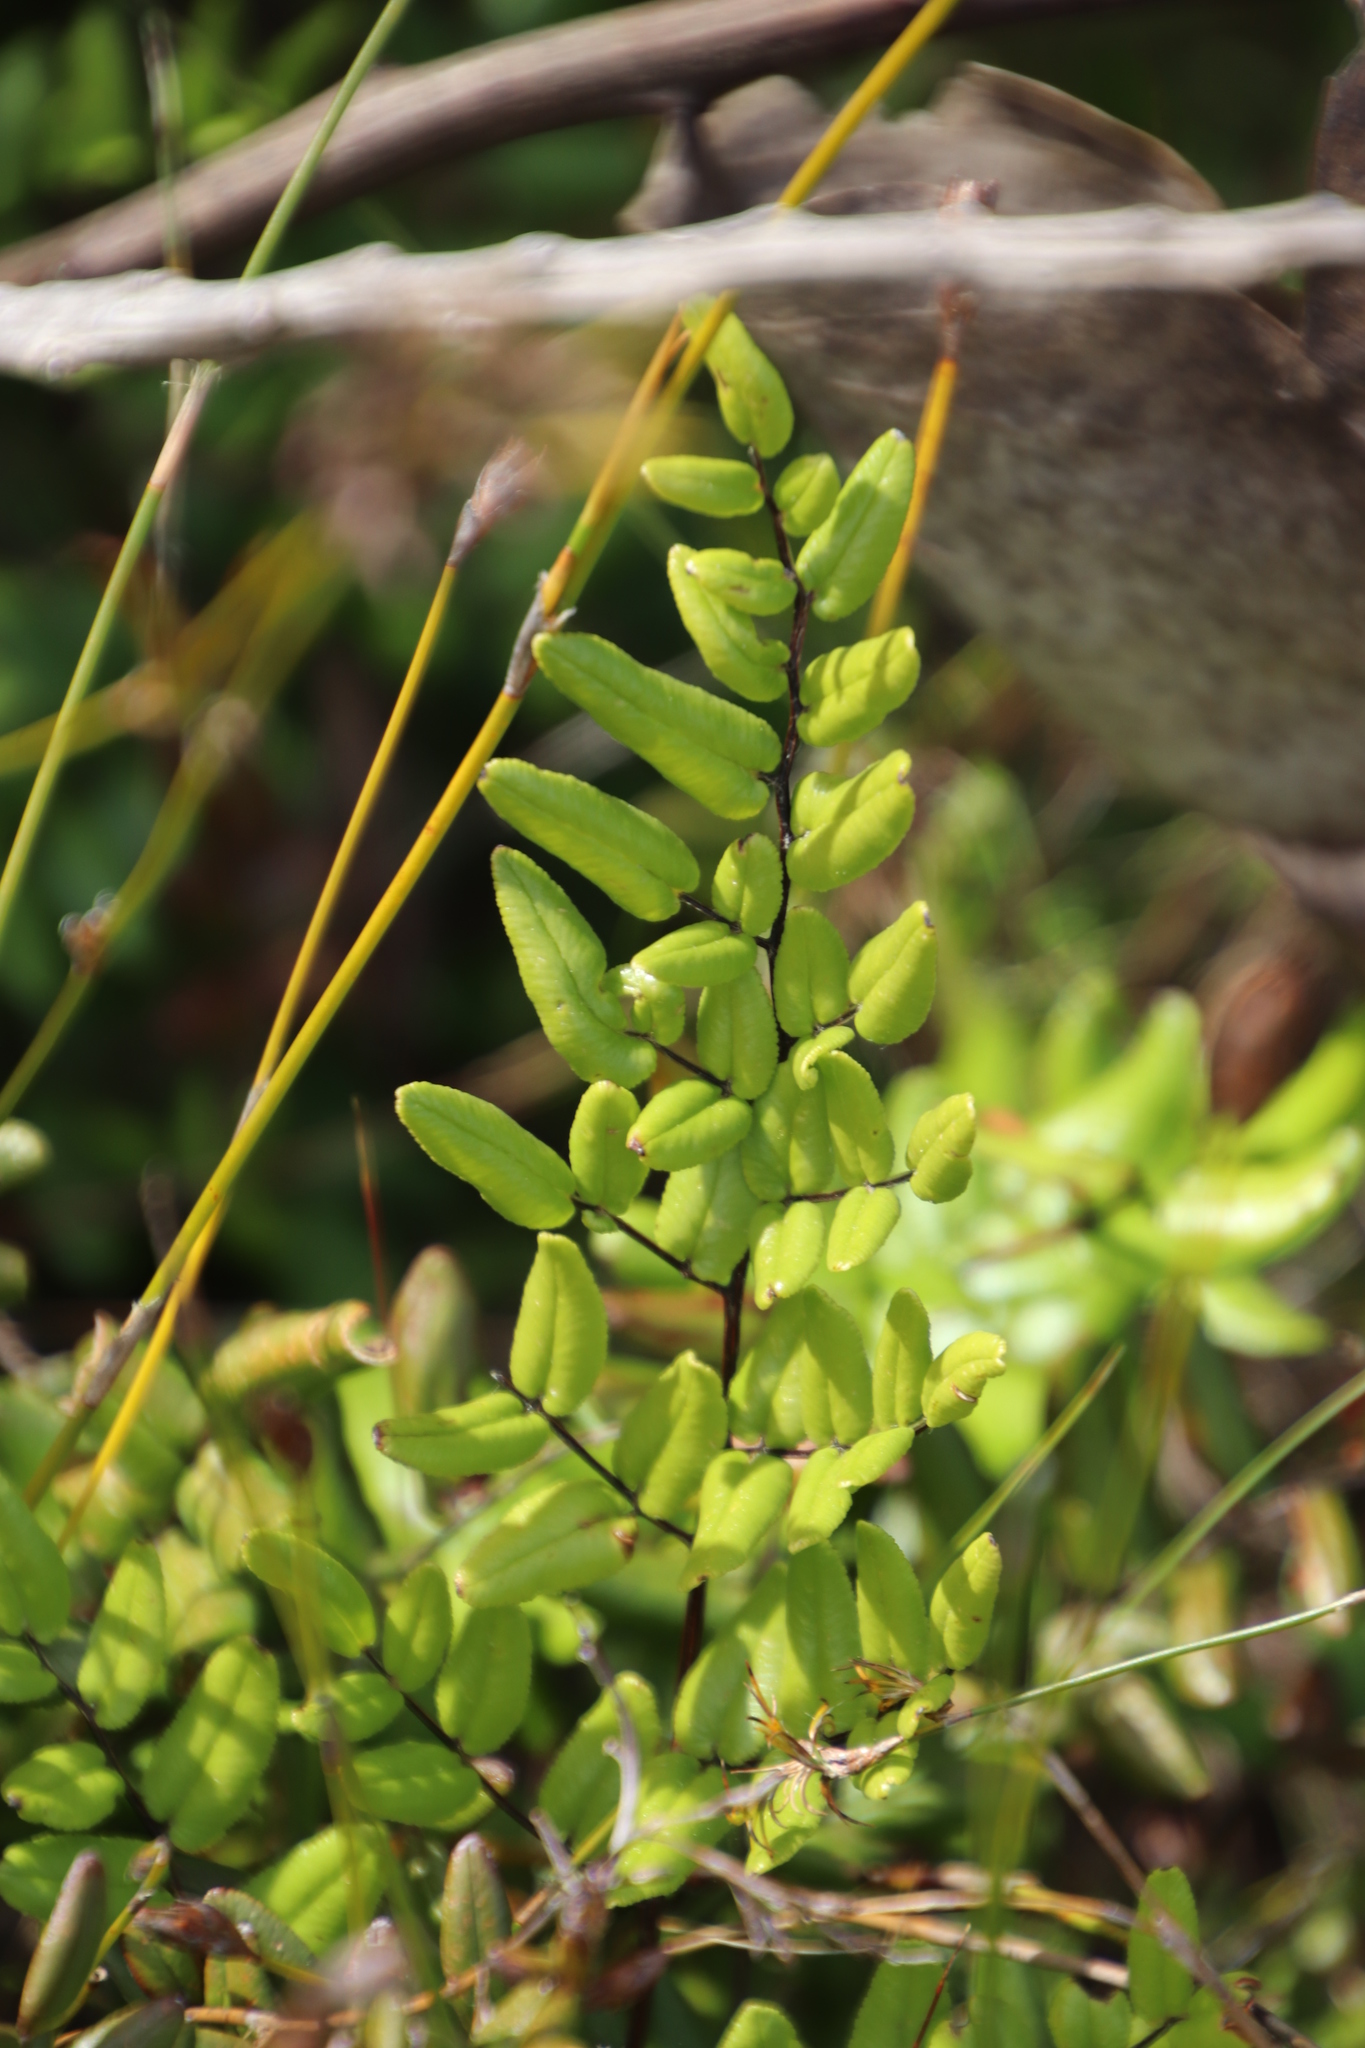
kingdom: Plantae
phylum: Tracheophyta
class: Polypodiopsida
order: Polypodiales
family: Pteridaceae
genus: Pellaea
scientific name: Pellaea pteroides
